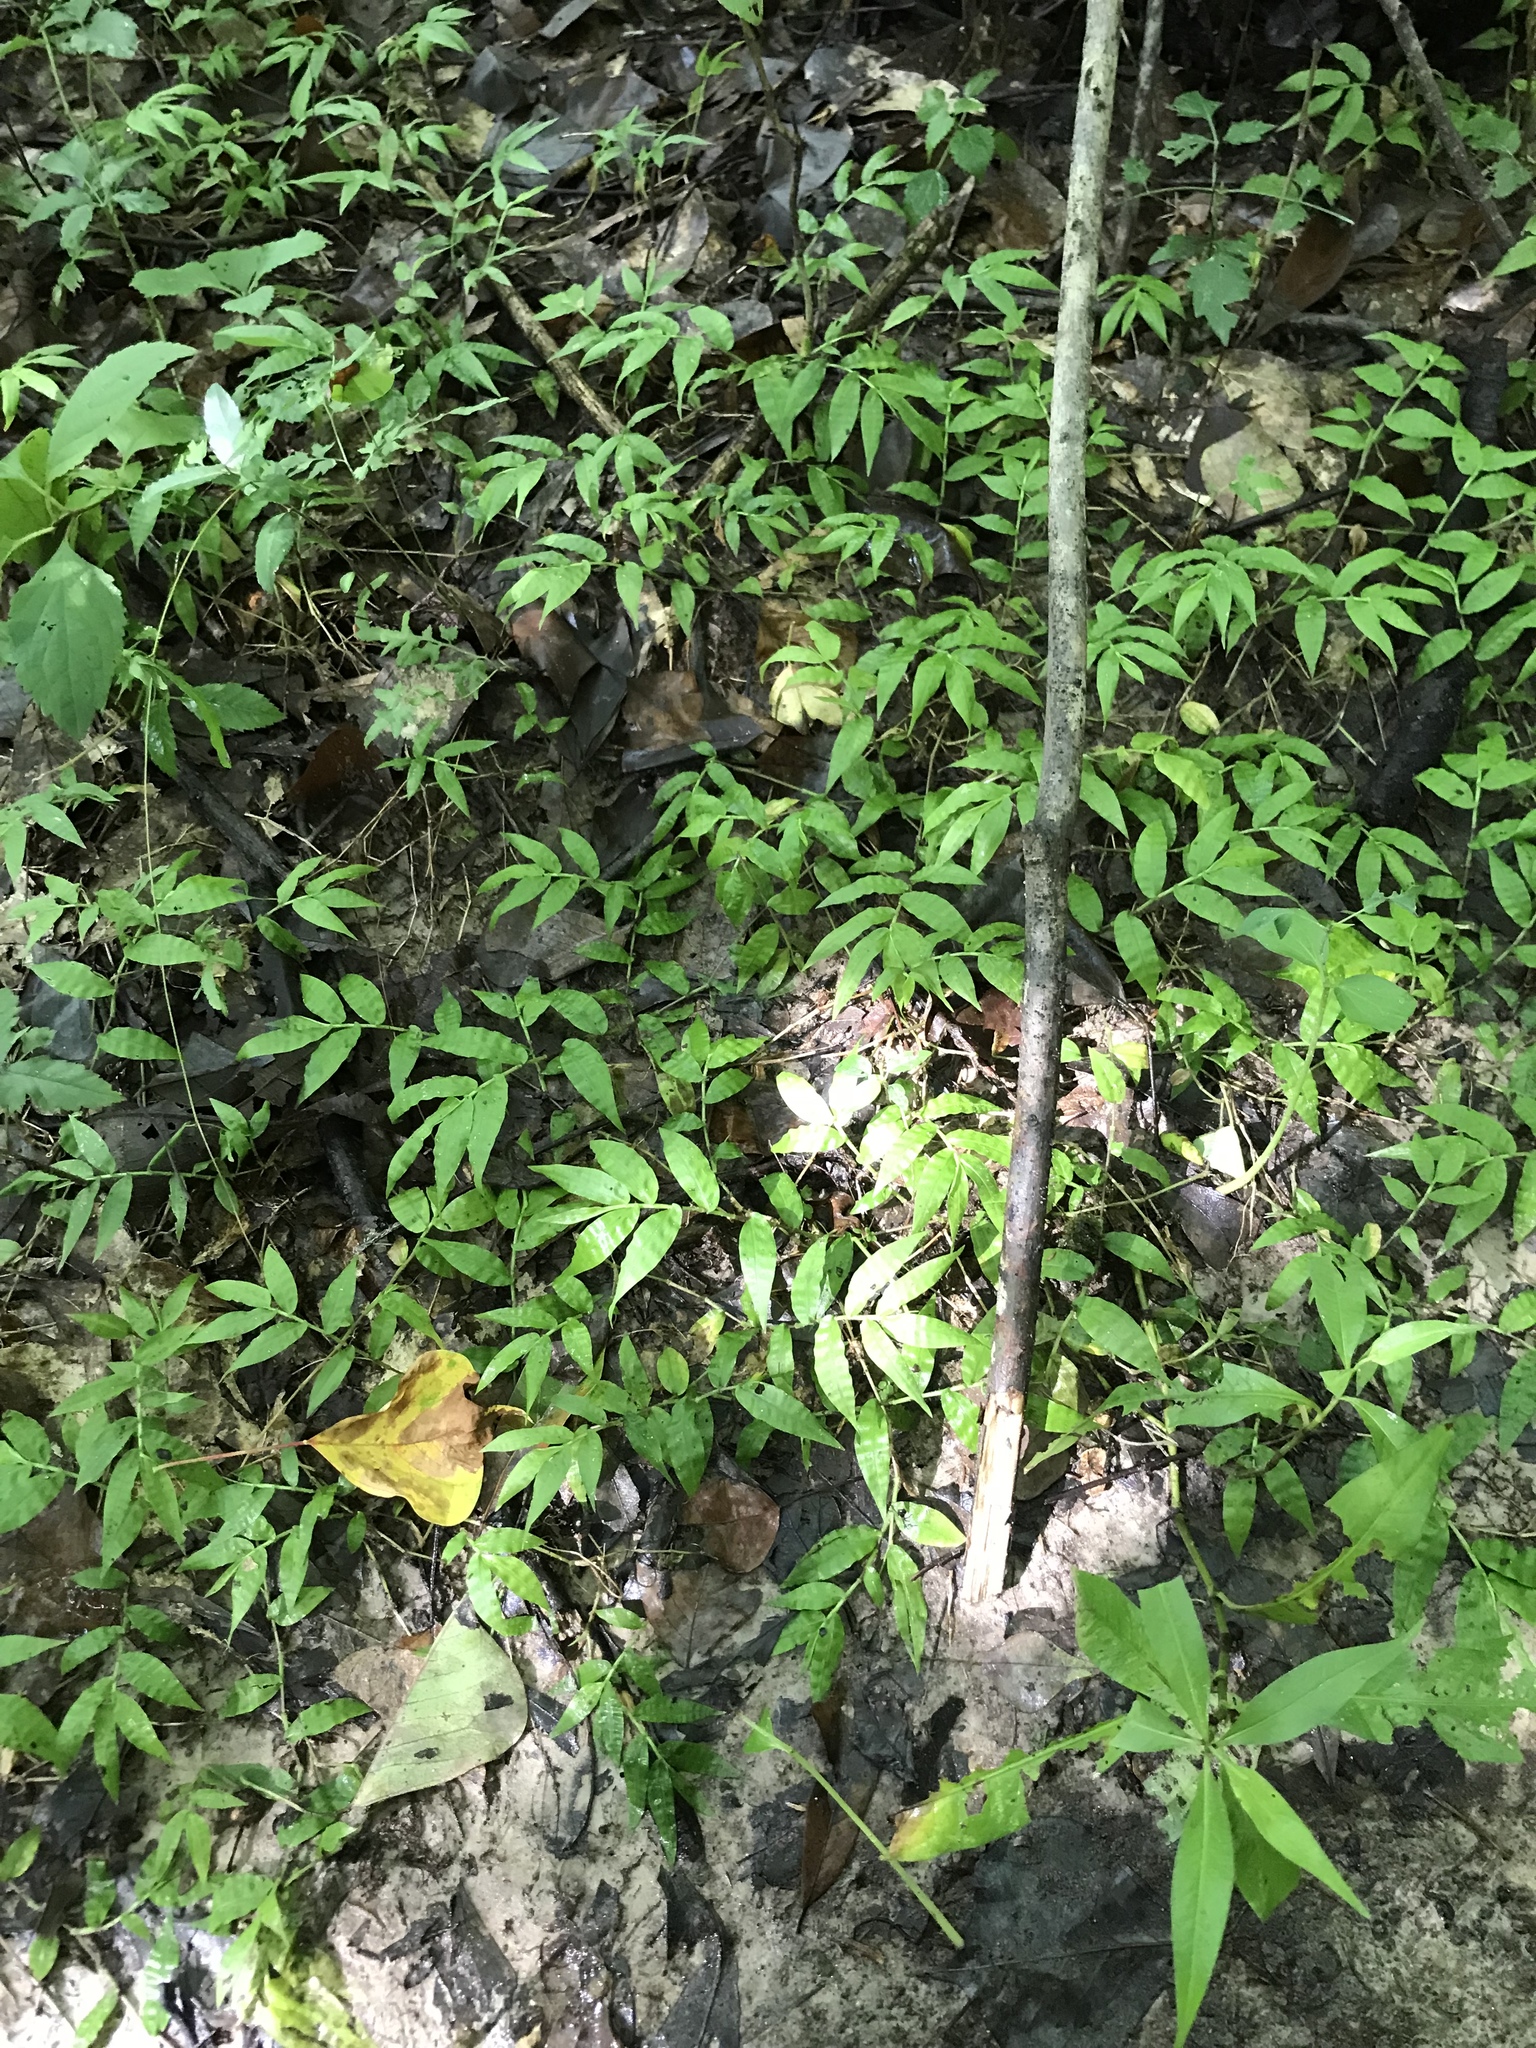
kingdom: Plantae
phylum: Tracheophyta
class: Liliopsida
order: Poales
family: Poaceae
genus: Oplismenus
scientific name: Oplismenus hirtellus
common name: Basketgrass
